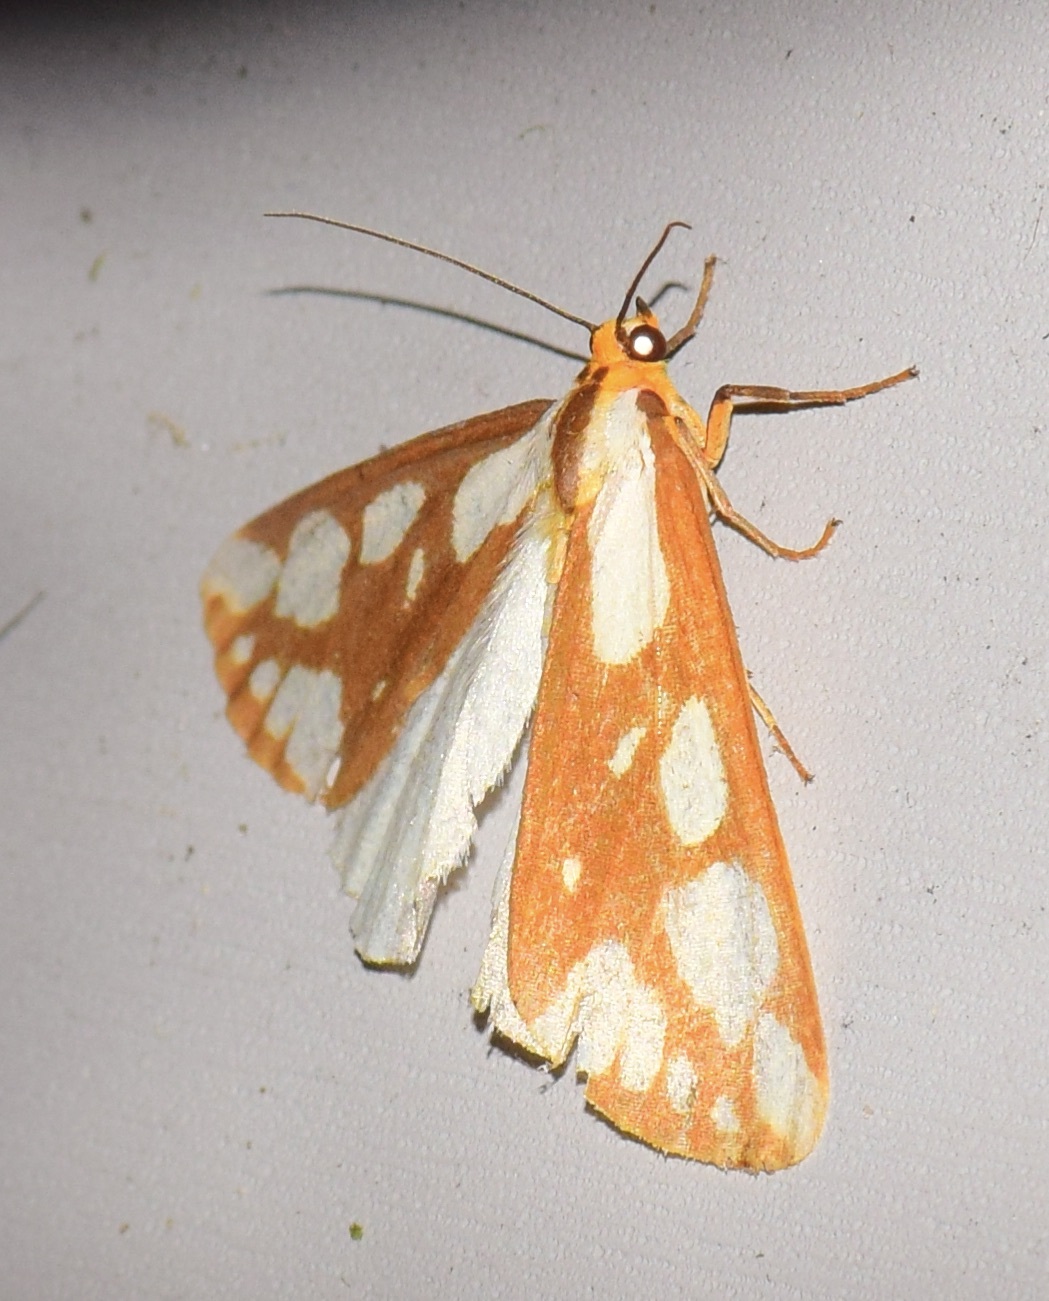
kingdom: Animalia
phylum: Arthropoda
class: Insecta
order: Lepidoptera
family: Erebidae
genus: Haploa
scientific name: Haploa confusa
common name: Confused haploa moth
